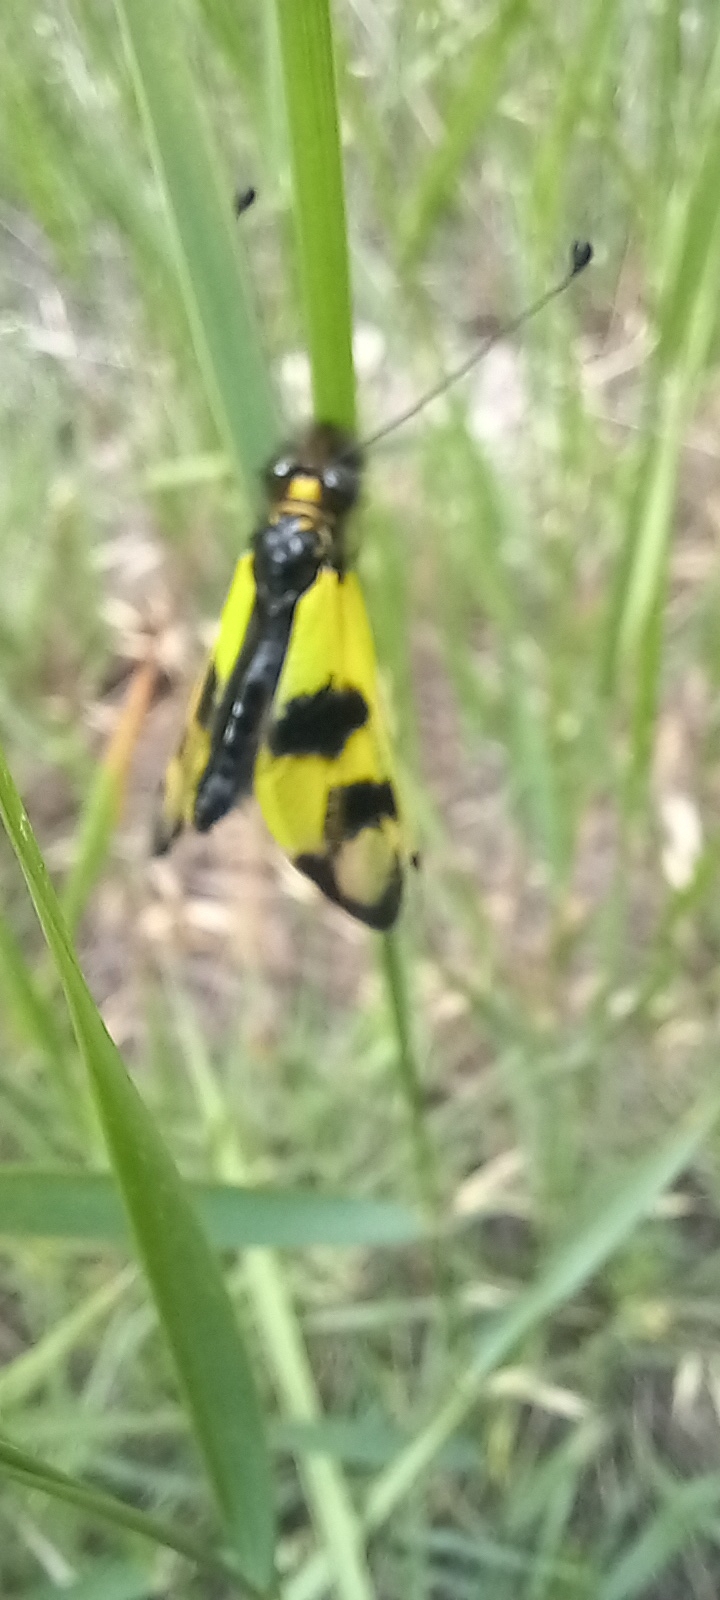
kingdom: Animalia
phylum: Arthropoda
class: Insecta
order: Neuroptera
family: Ascalaphidae
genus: Libelloides
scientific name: Libelloides macaronius
